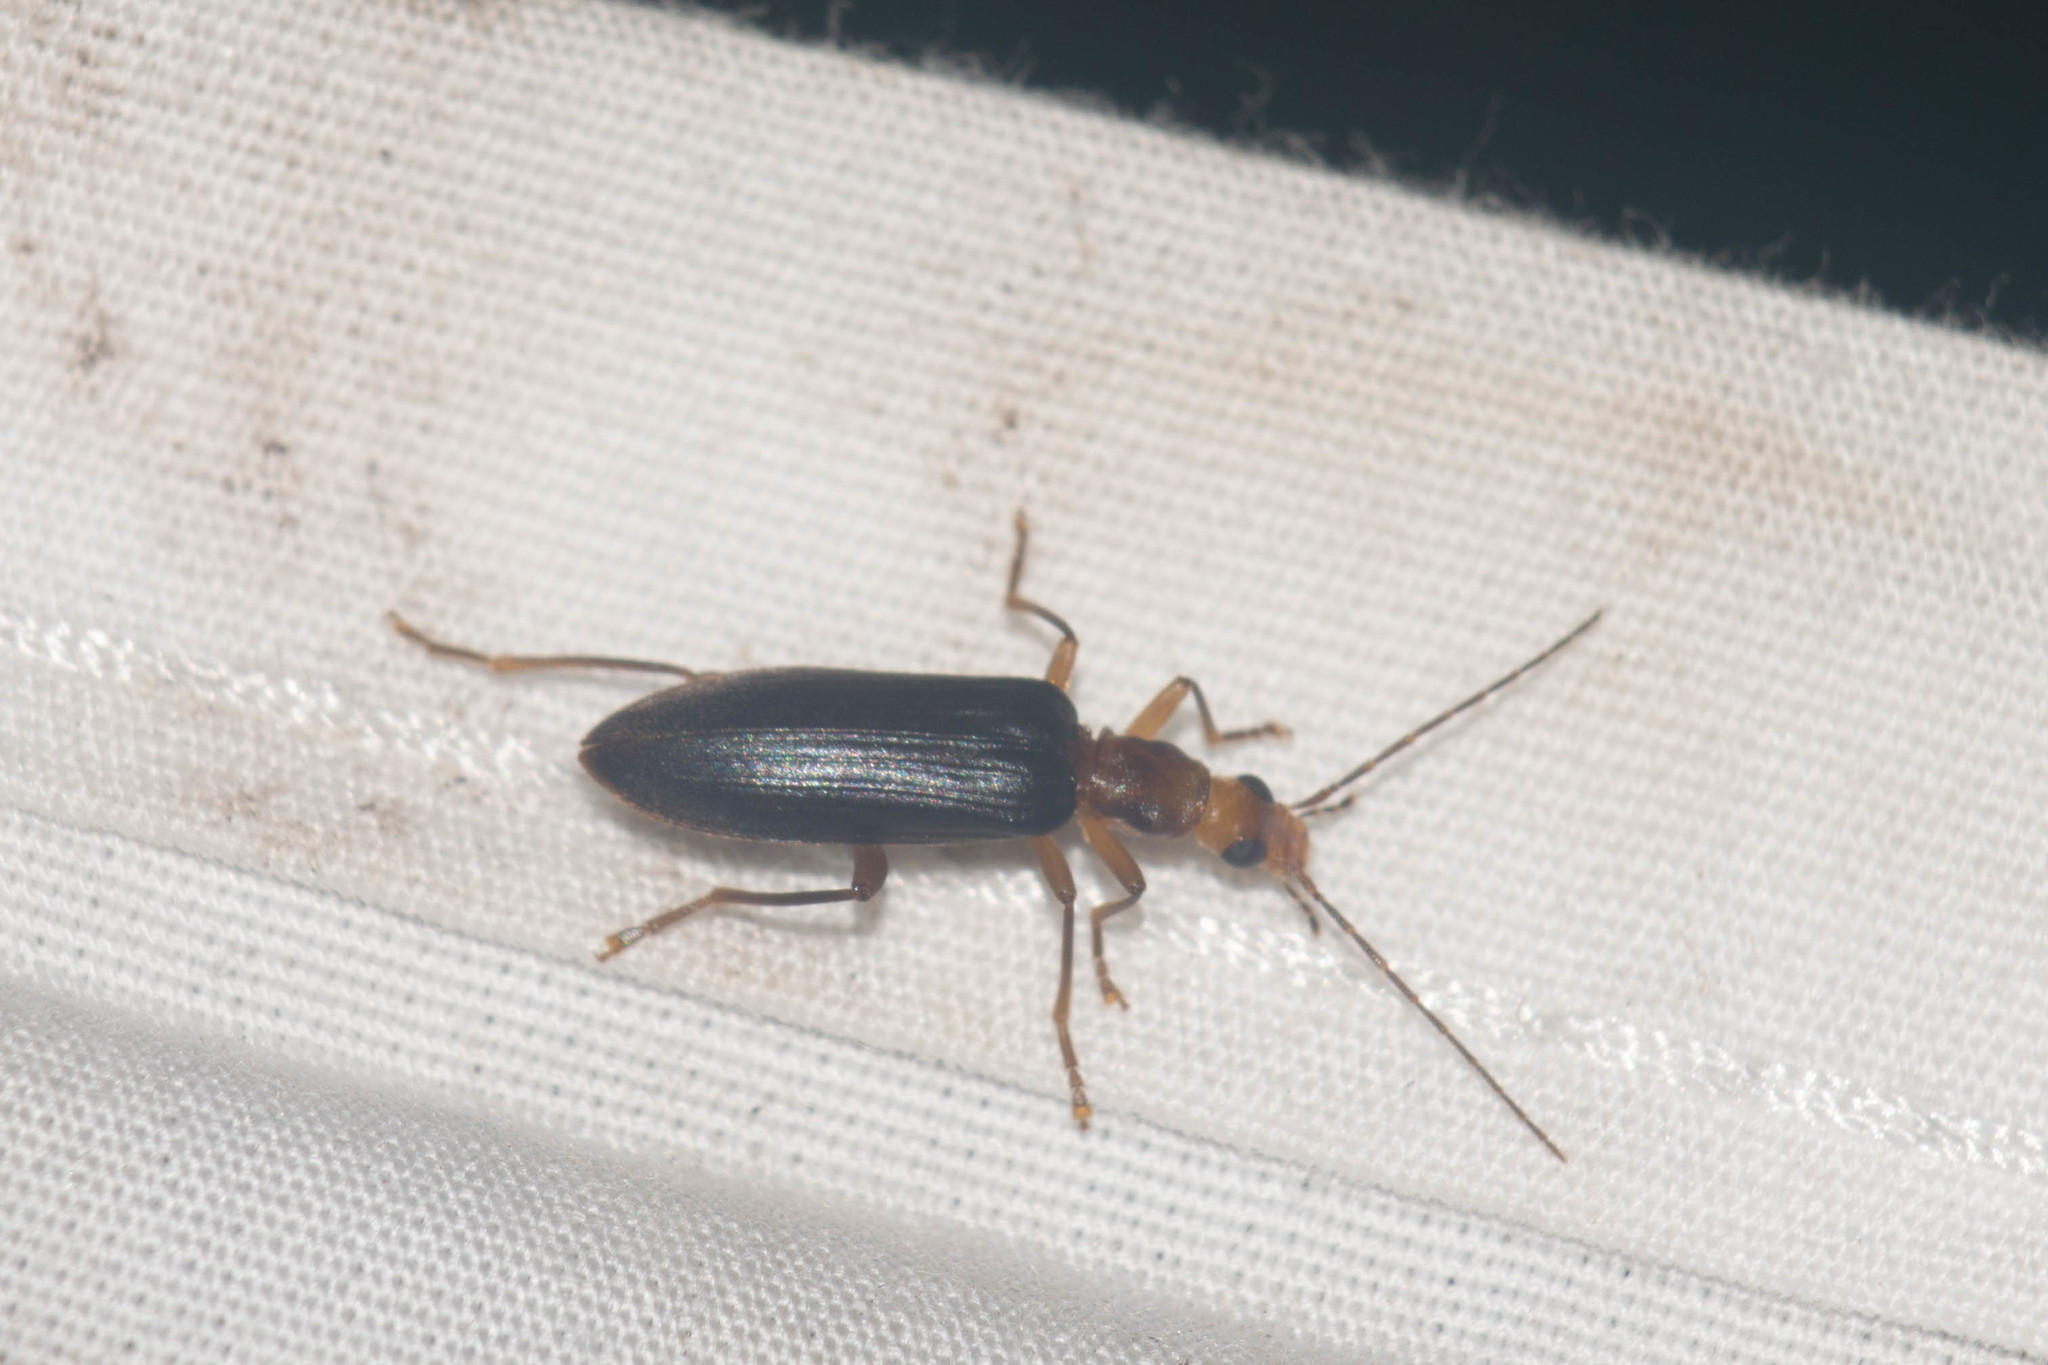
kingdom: Animalia
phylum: Arthropoda
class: Insecta
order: Coleoptera
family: Oedemeridae
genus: Ananca
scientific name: Ananca bicolor
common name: Red-black false blister-beetle
